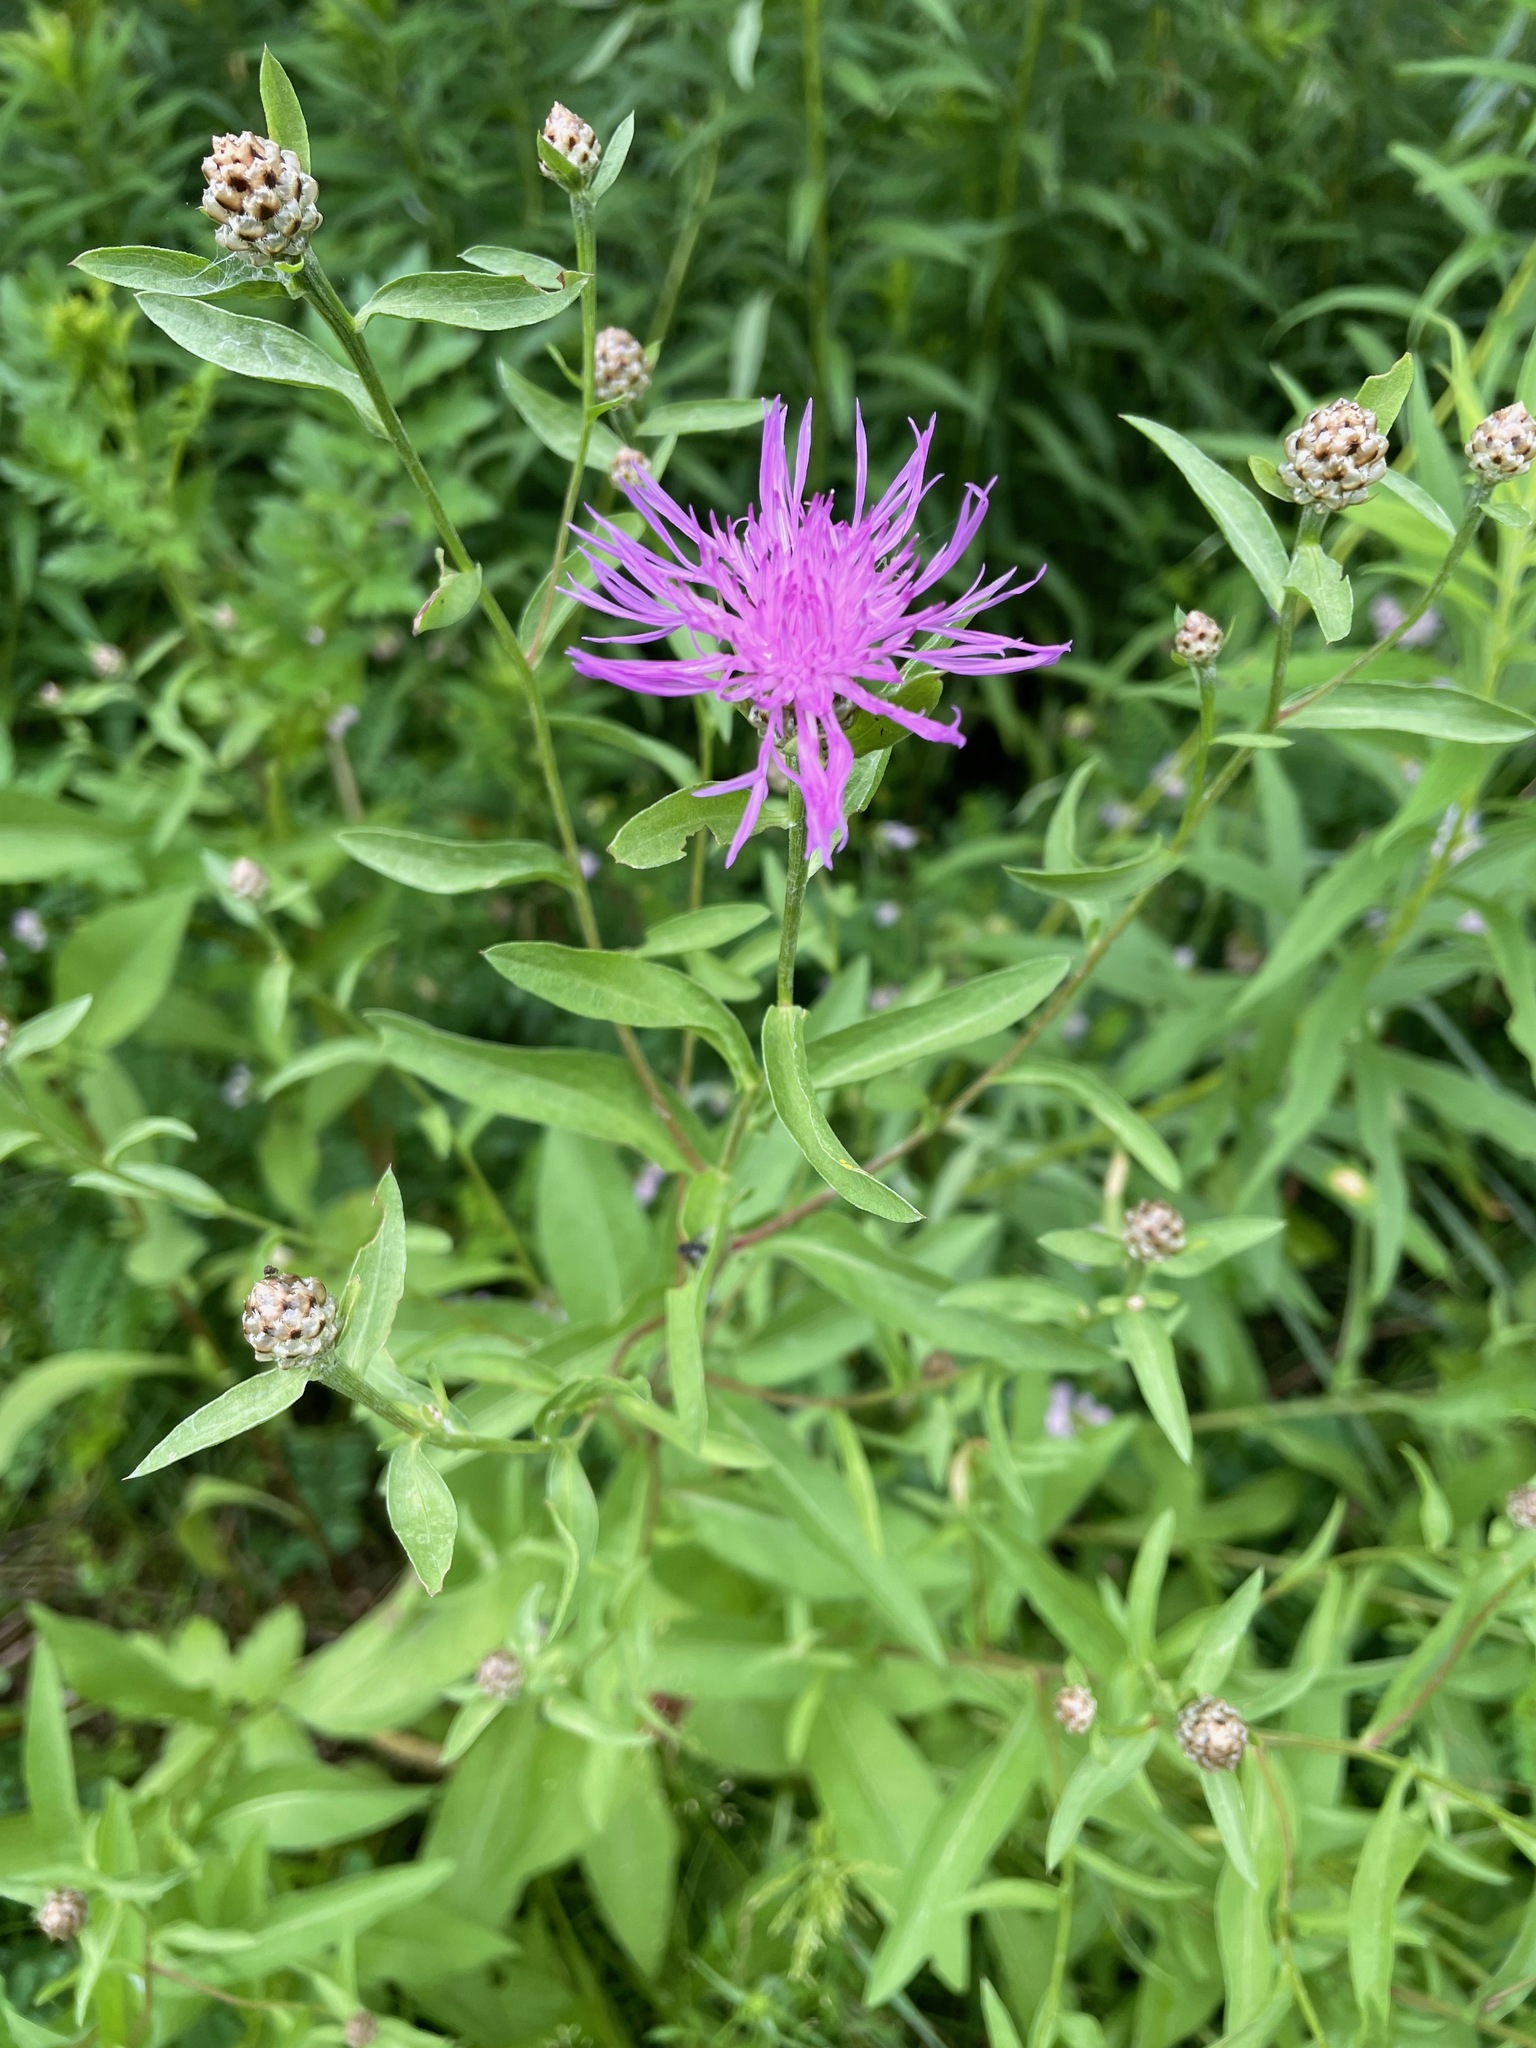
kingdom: Plantae
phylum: Tracheophyta
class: Magnoliopsida
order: Asterales
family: Asteraceae
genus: Centaurea
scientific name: Centaurea jacea
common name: Brown knapweed
